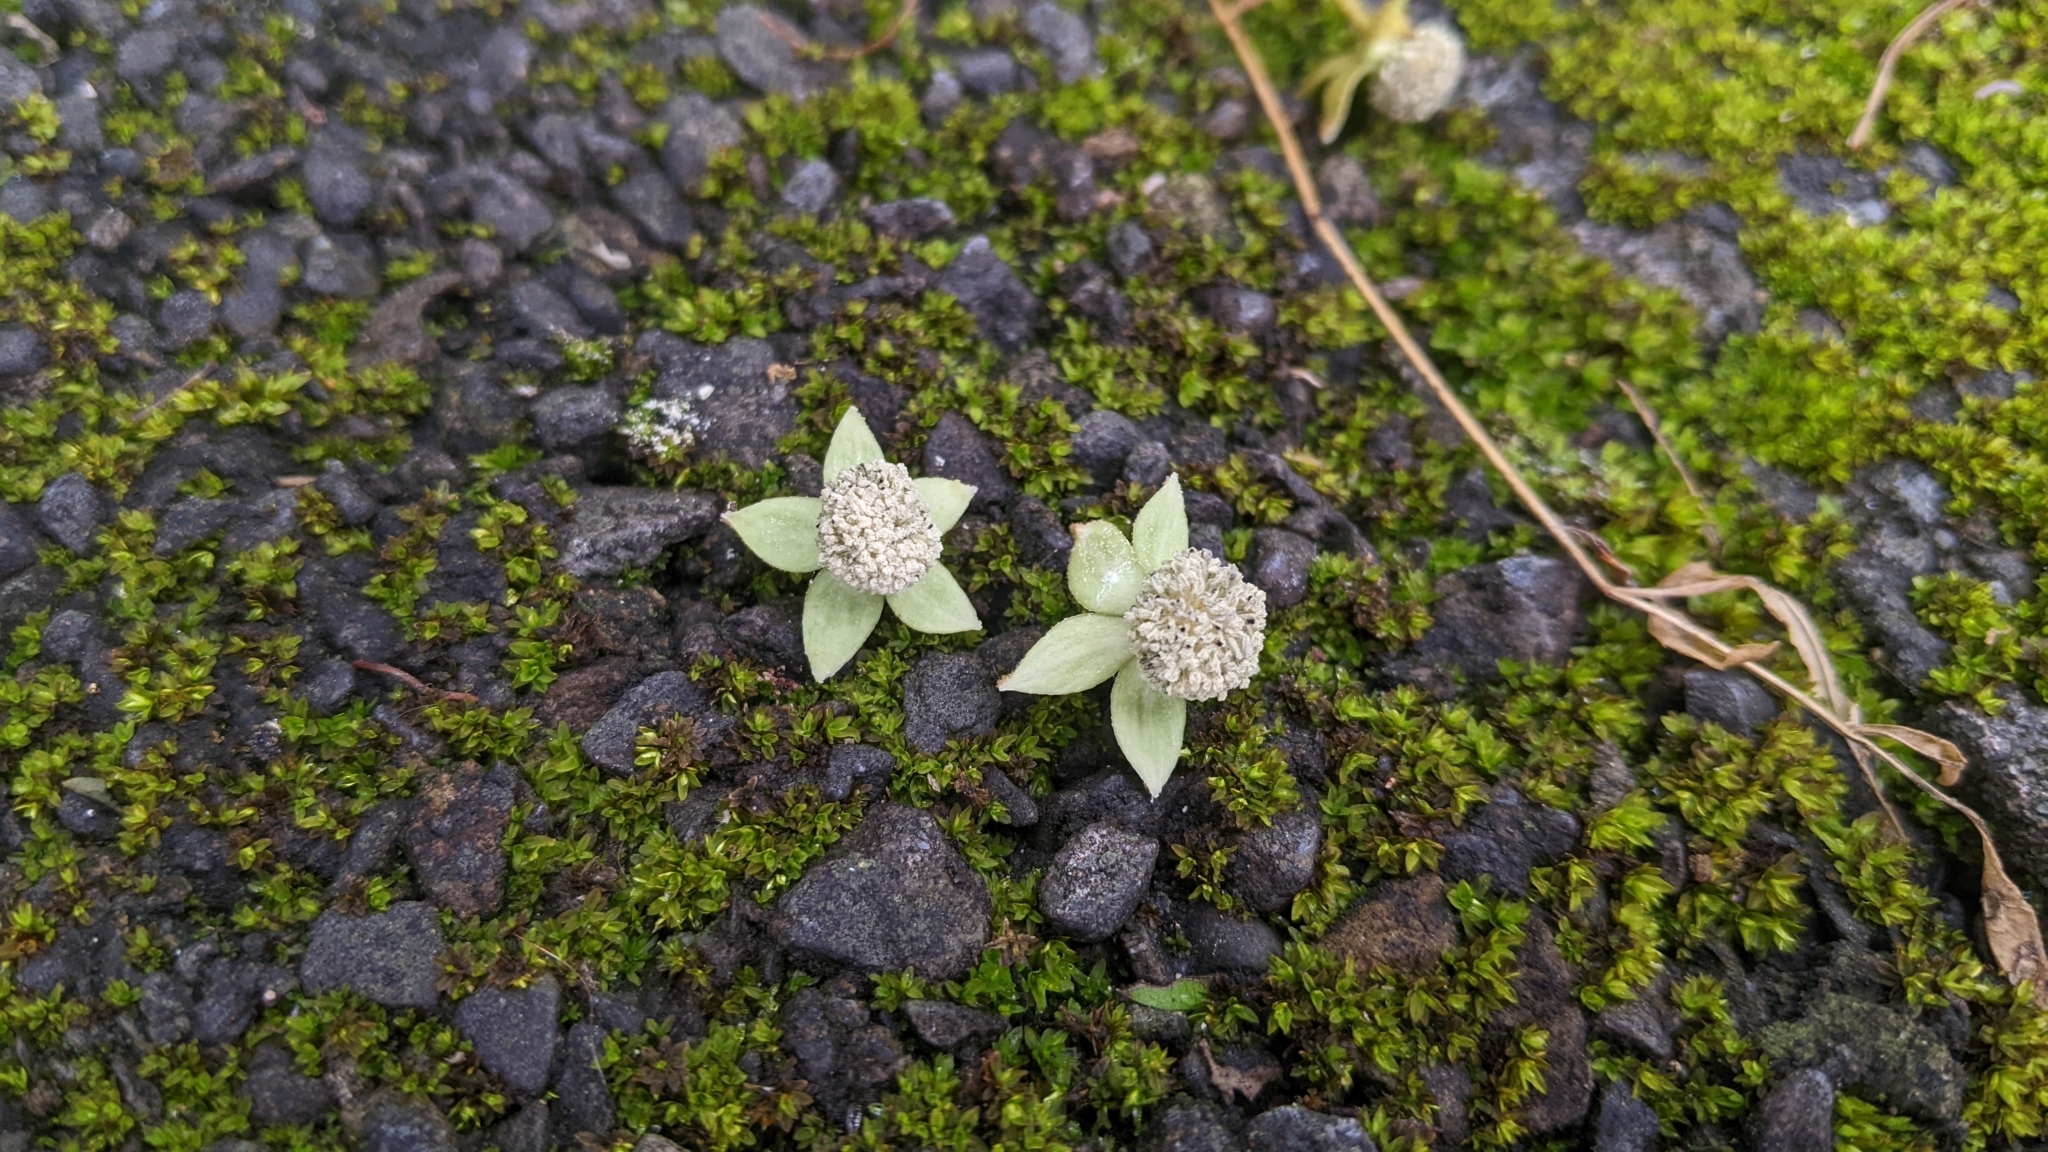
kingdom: Plantae
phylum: Tracheophyta
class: Magnoliopsida
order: Malpighiales
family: Euphorbiaceae
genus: Melanolepis
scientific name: Melanolepis multiglandulosa
